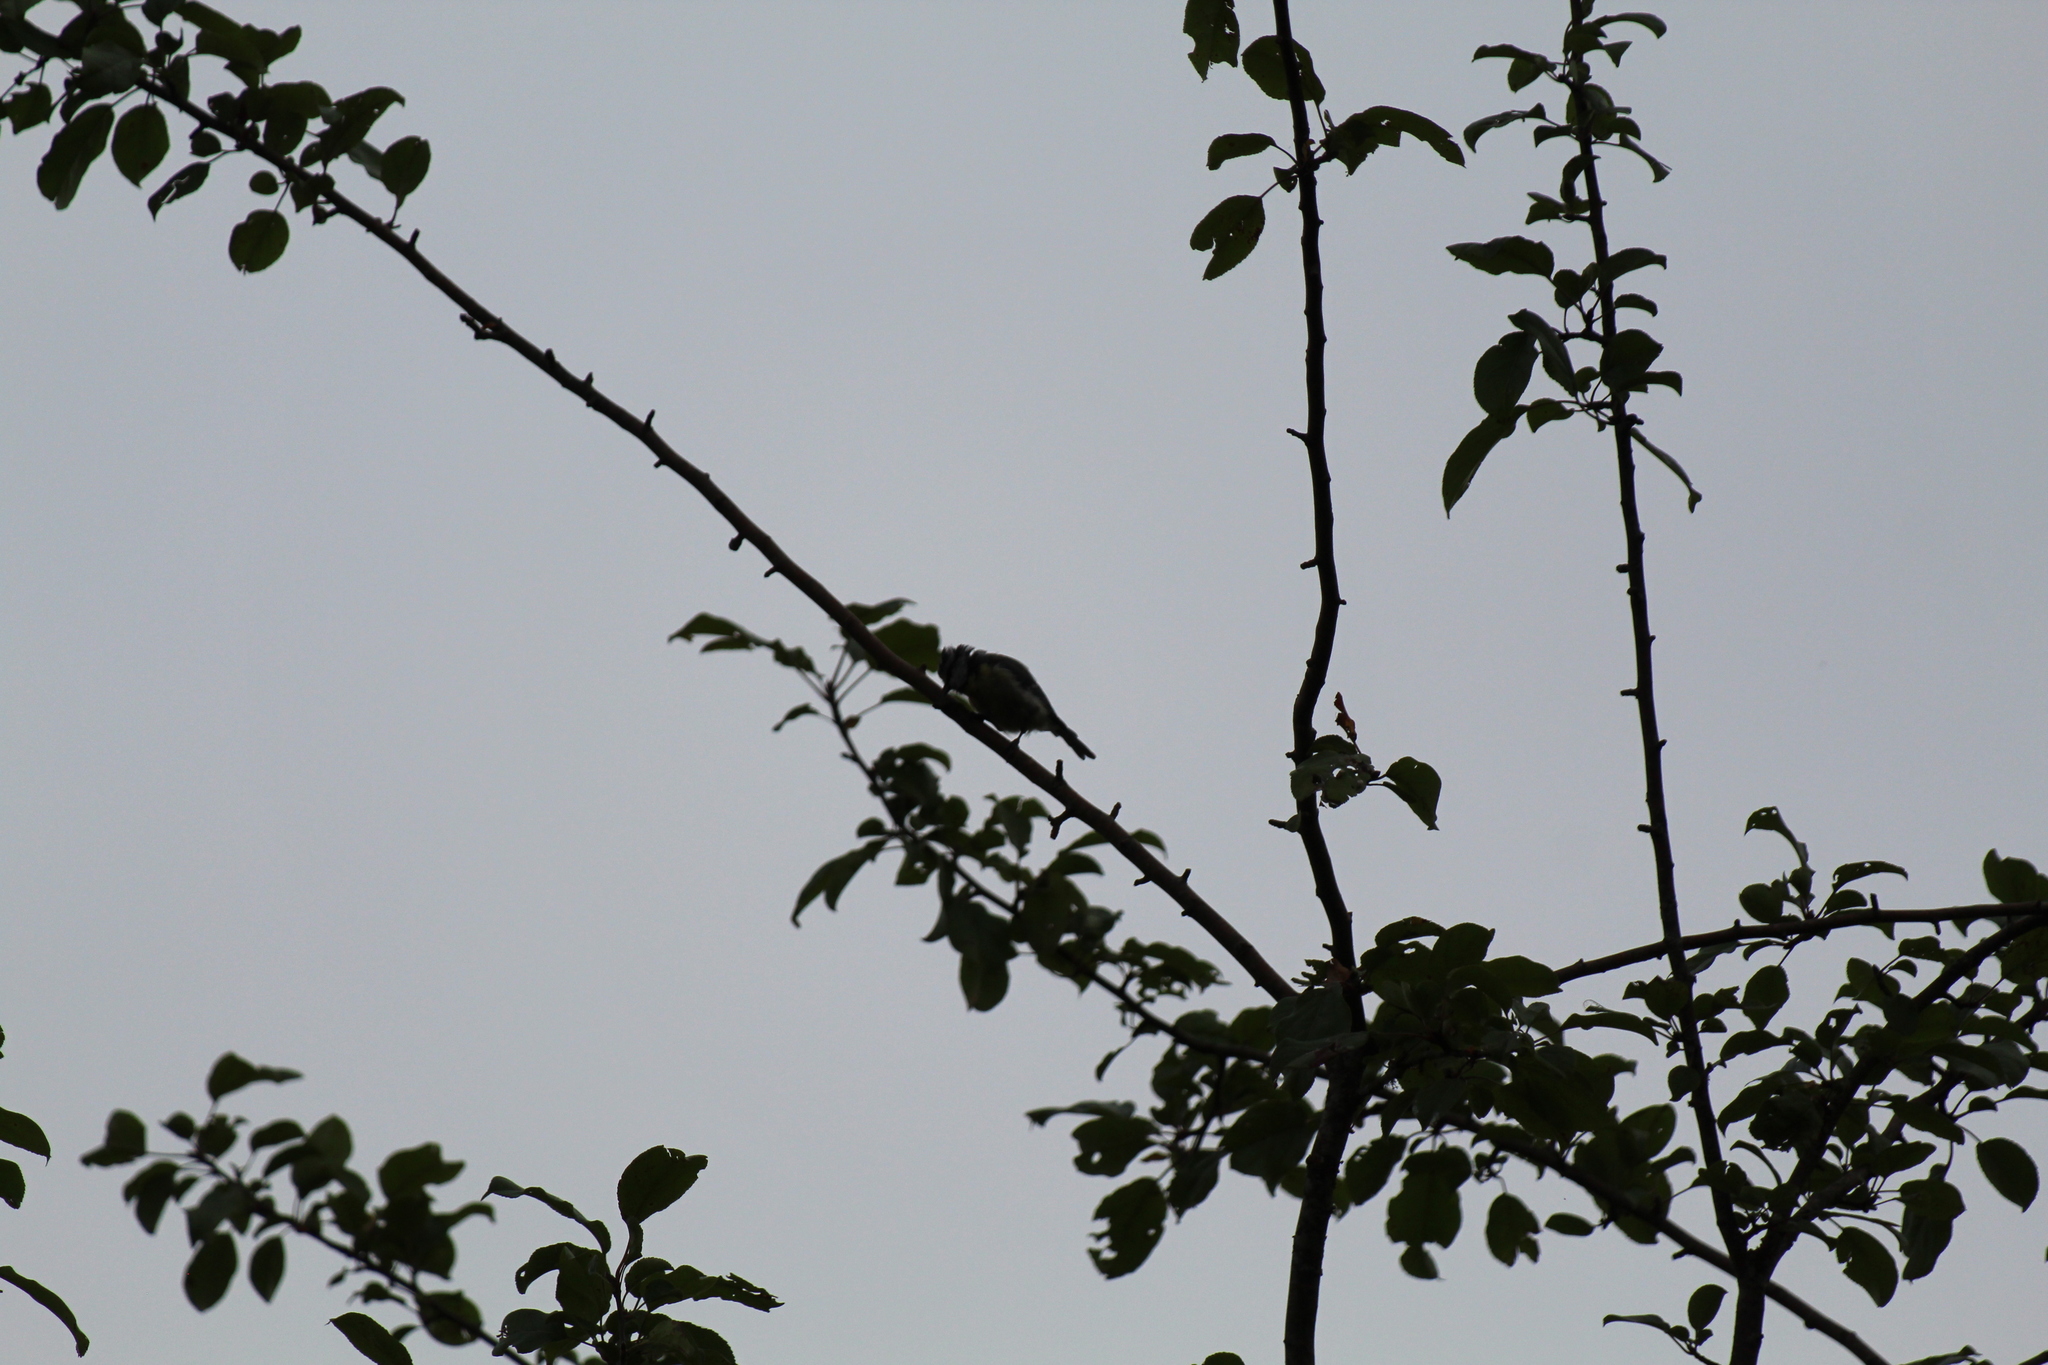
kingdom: Animalia
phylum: Chordata
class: Aves
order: Passeriformes
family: Paridae
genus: Cyanistes
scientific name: Cyanistes caeruleus
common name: Eurasian blue tit
